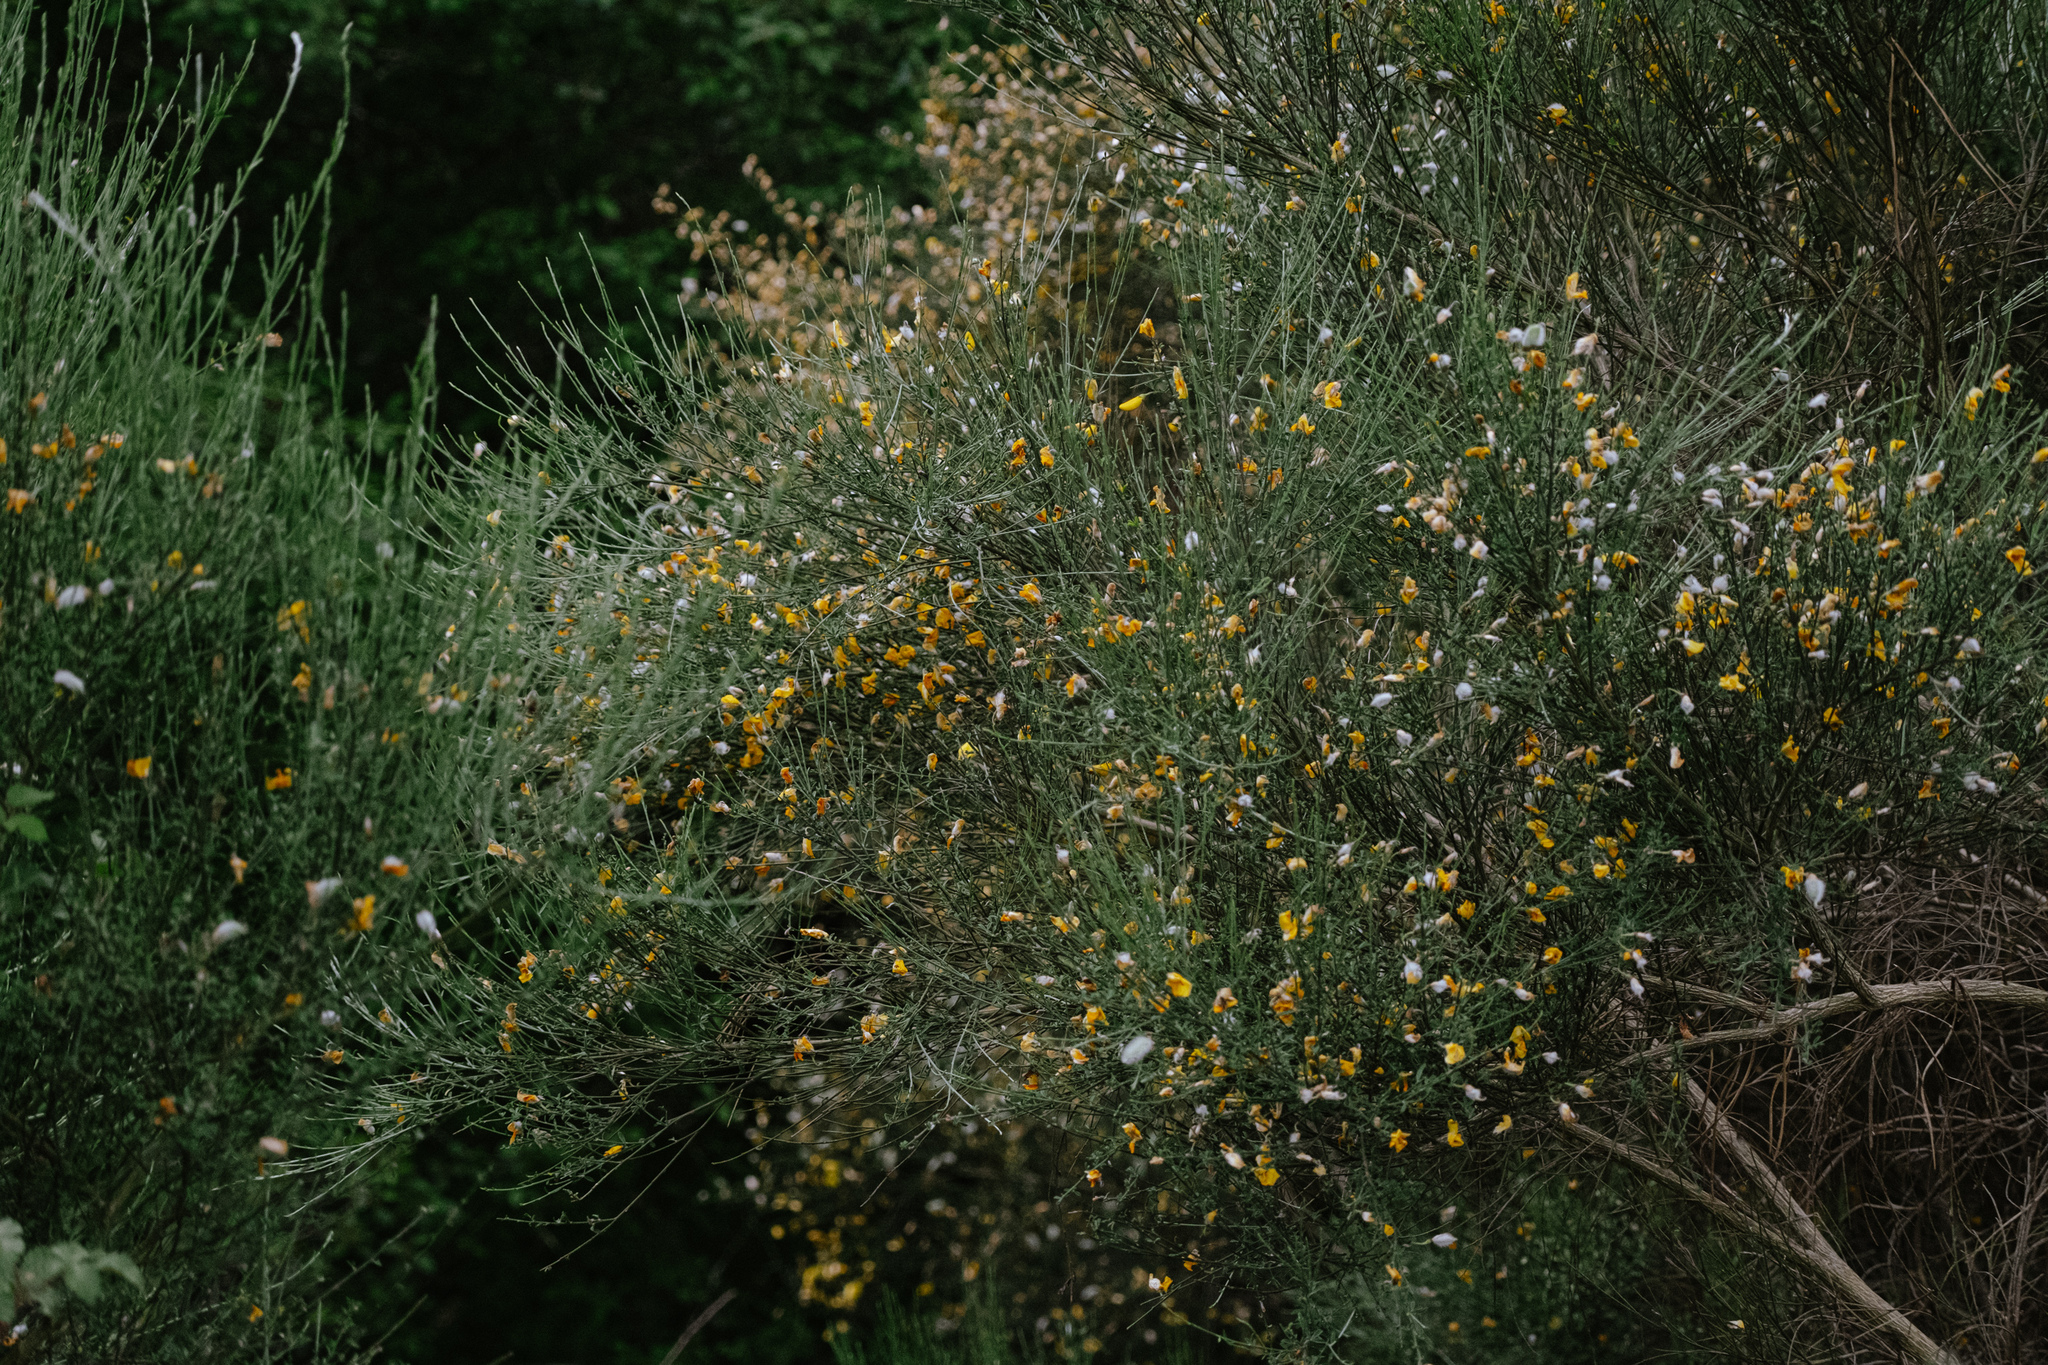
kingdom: Plantae
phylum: Tracheophyta
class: Magnoliopsida
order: Fabales
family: Fabaceae
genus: Cytisus
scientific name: Cytisus striatus
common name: Hairy-fruited broom
